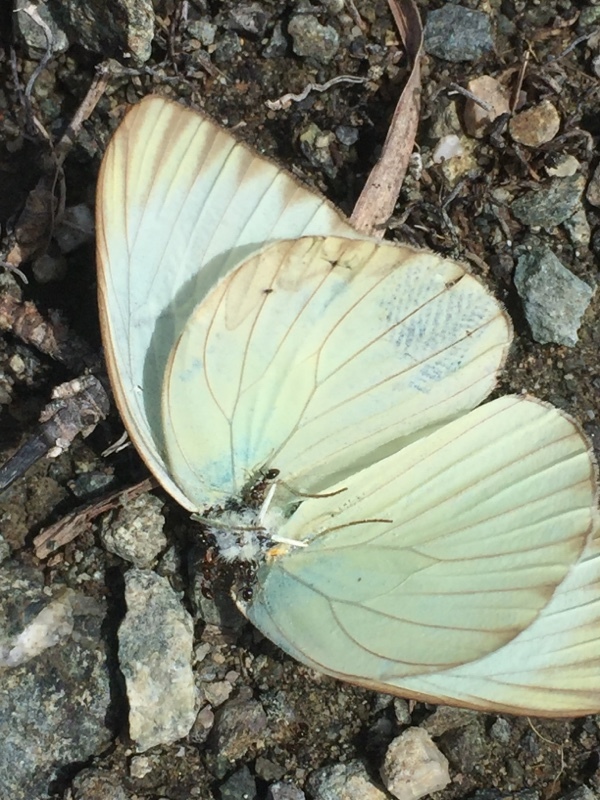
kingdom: Animalia
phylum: Arthropoda
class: Insecta
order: Lepidoptera
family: Pieridae
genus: Ascia
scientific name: Ascia monuste
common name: Great southern white
